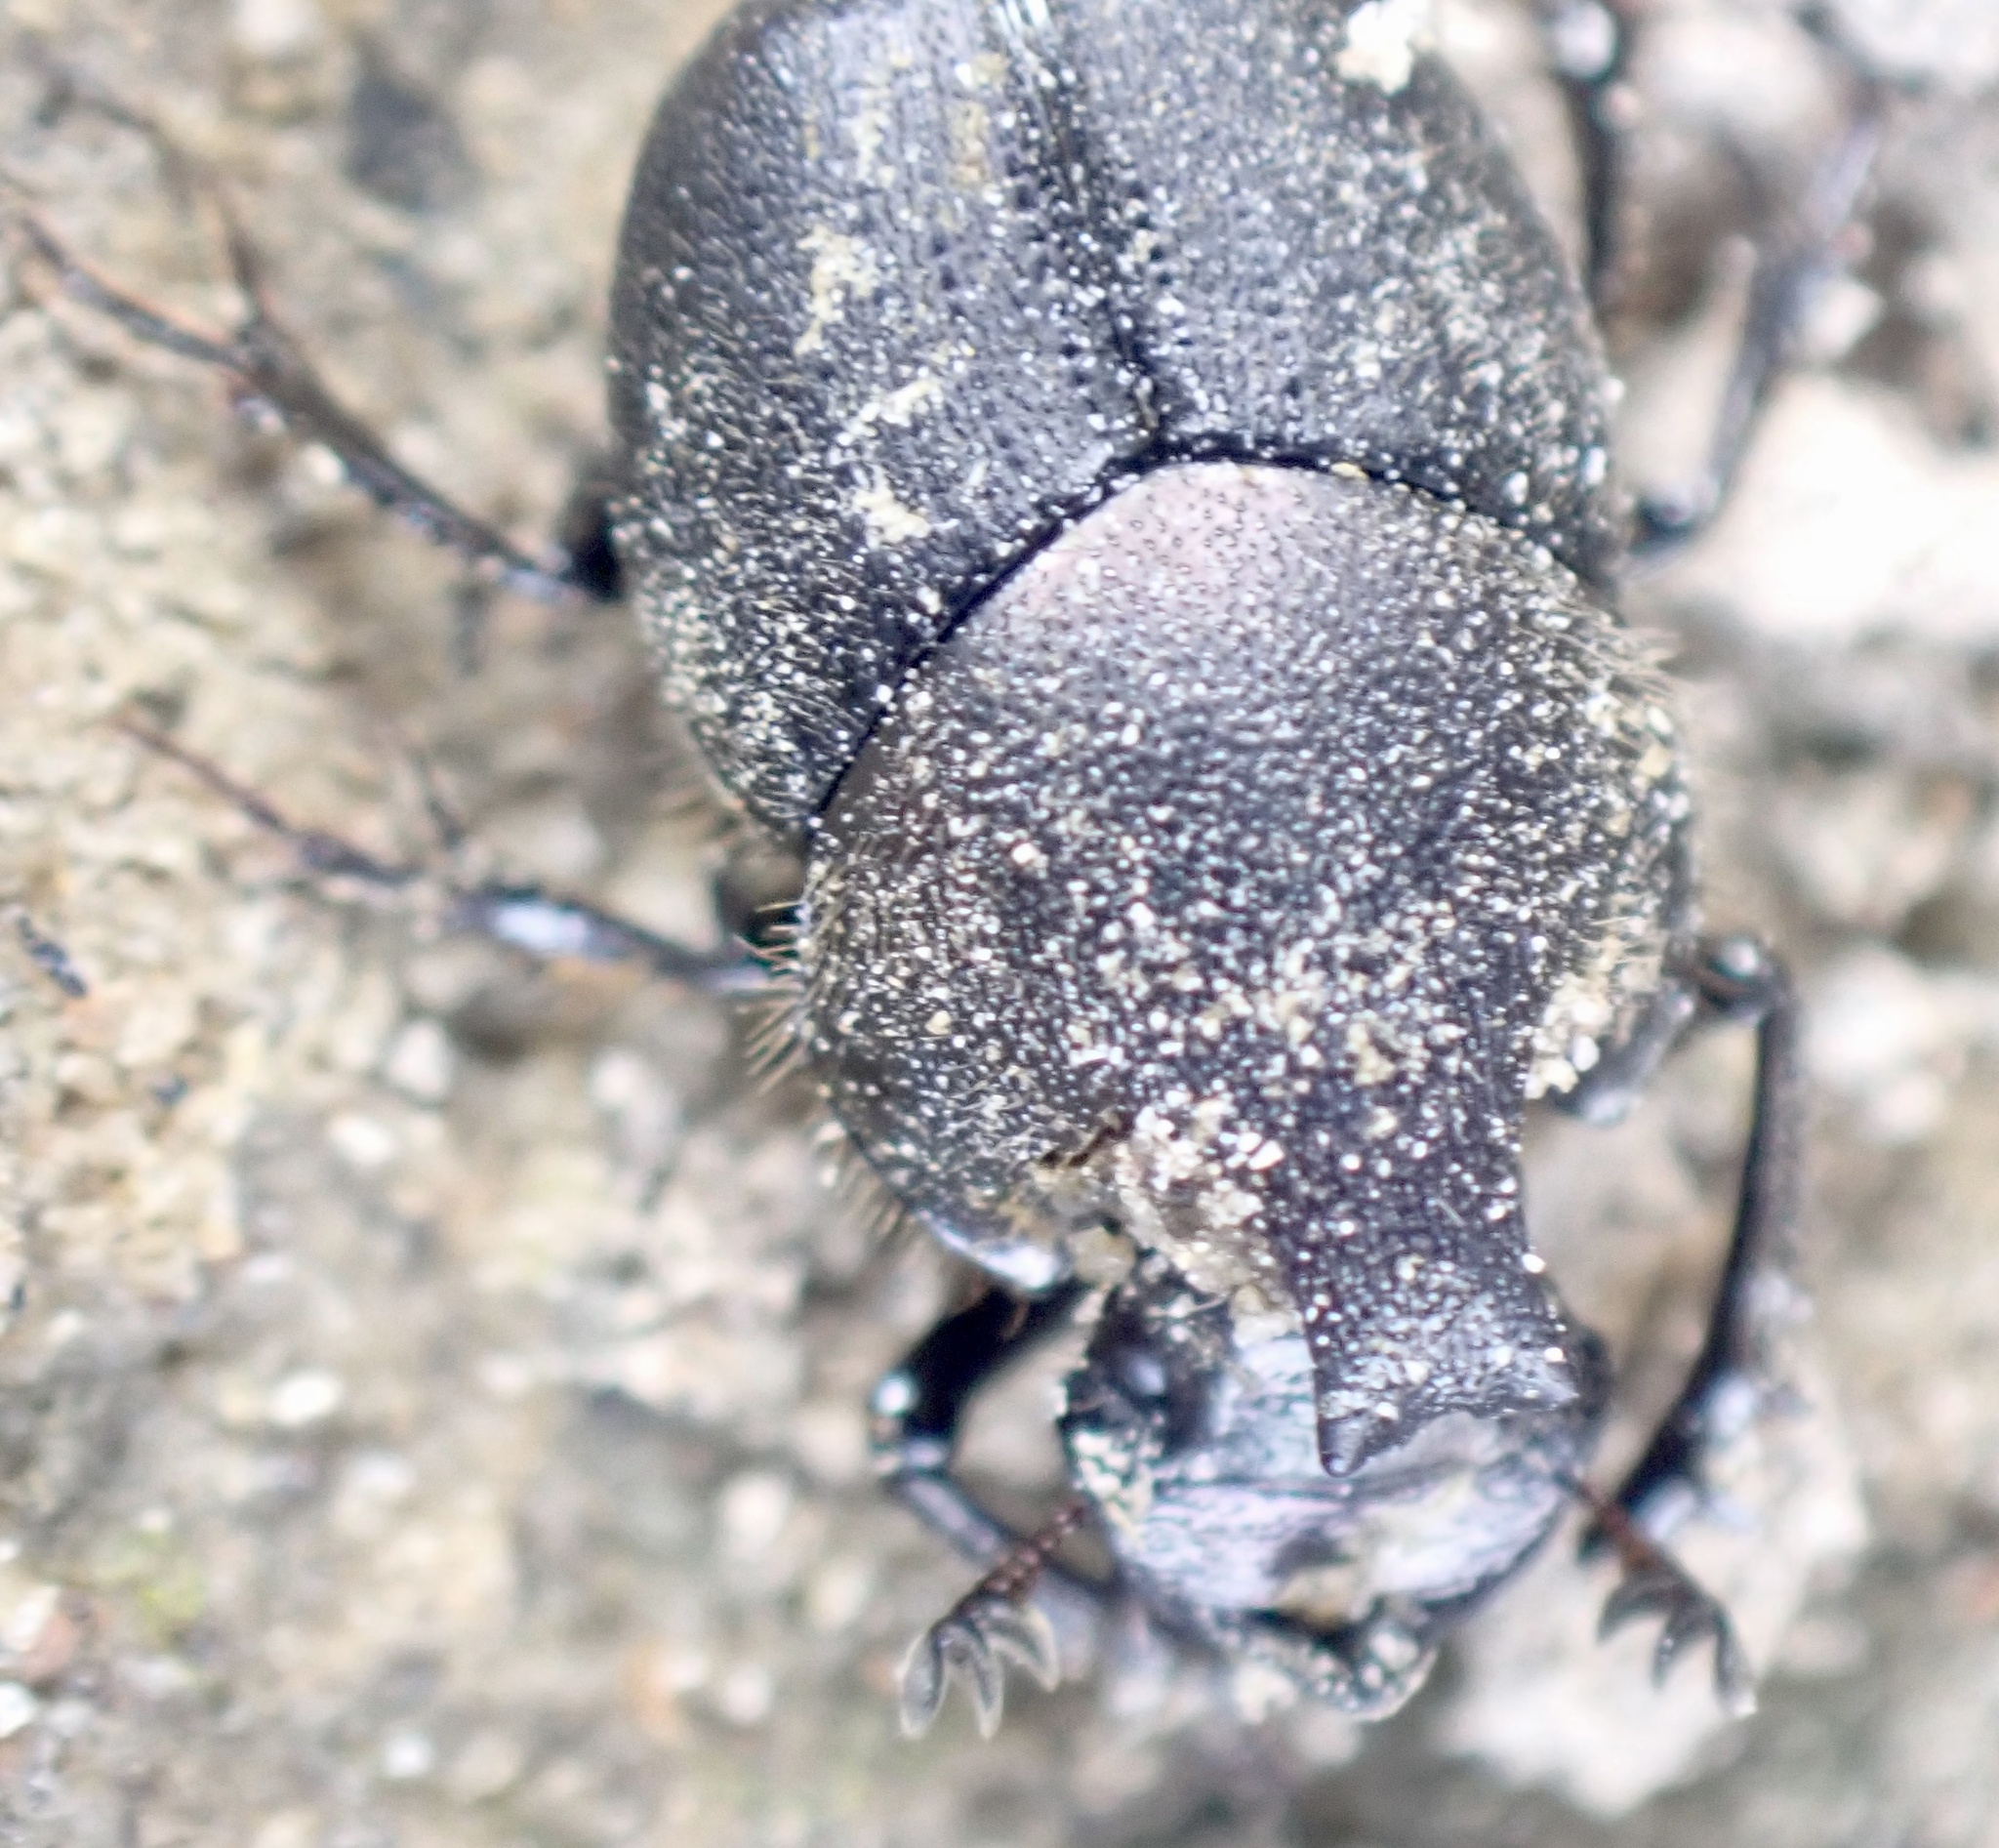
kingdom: Animalia
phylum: Arthropoda
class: Insecta
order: Coleoptera
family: Scarabaeidae
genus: Onthophagus
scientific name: Onthophagus hecate
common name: Scooped scarab
